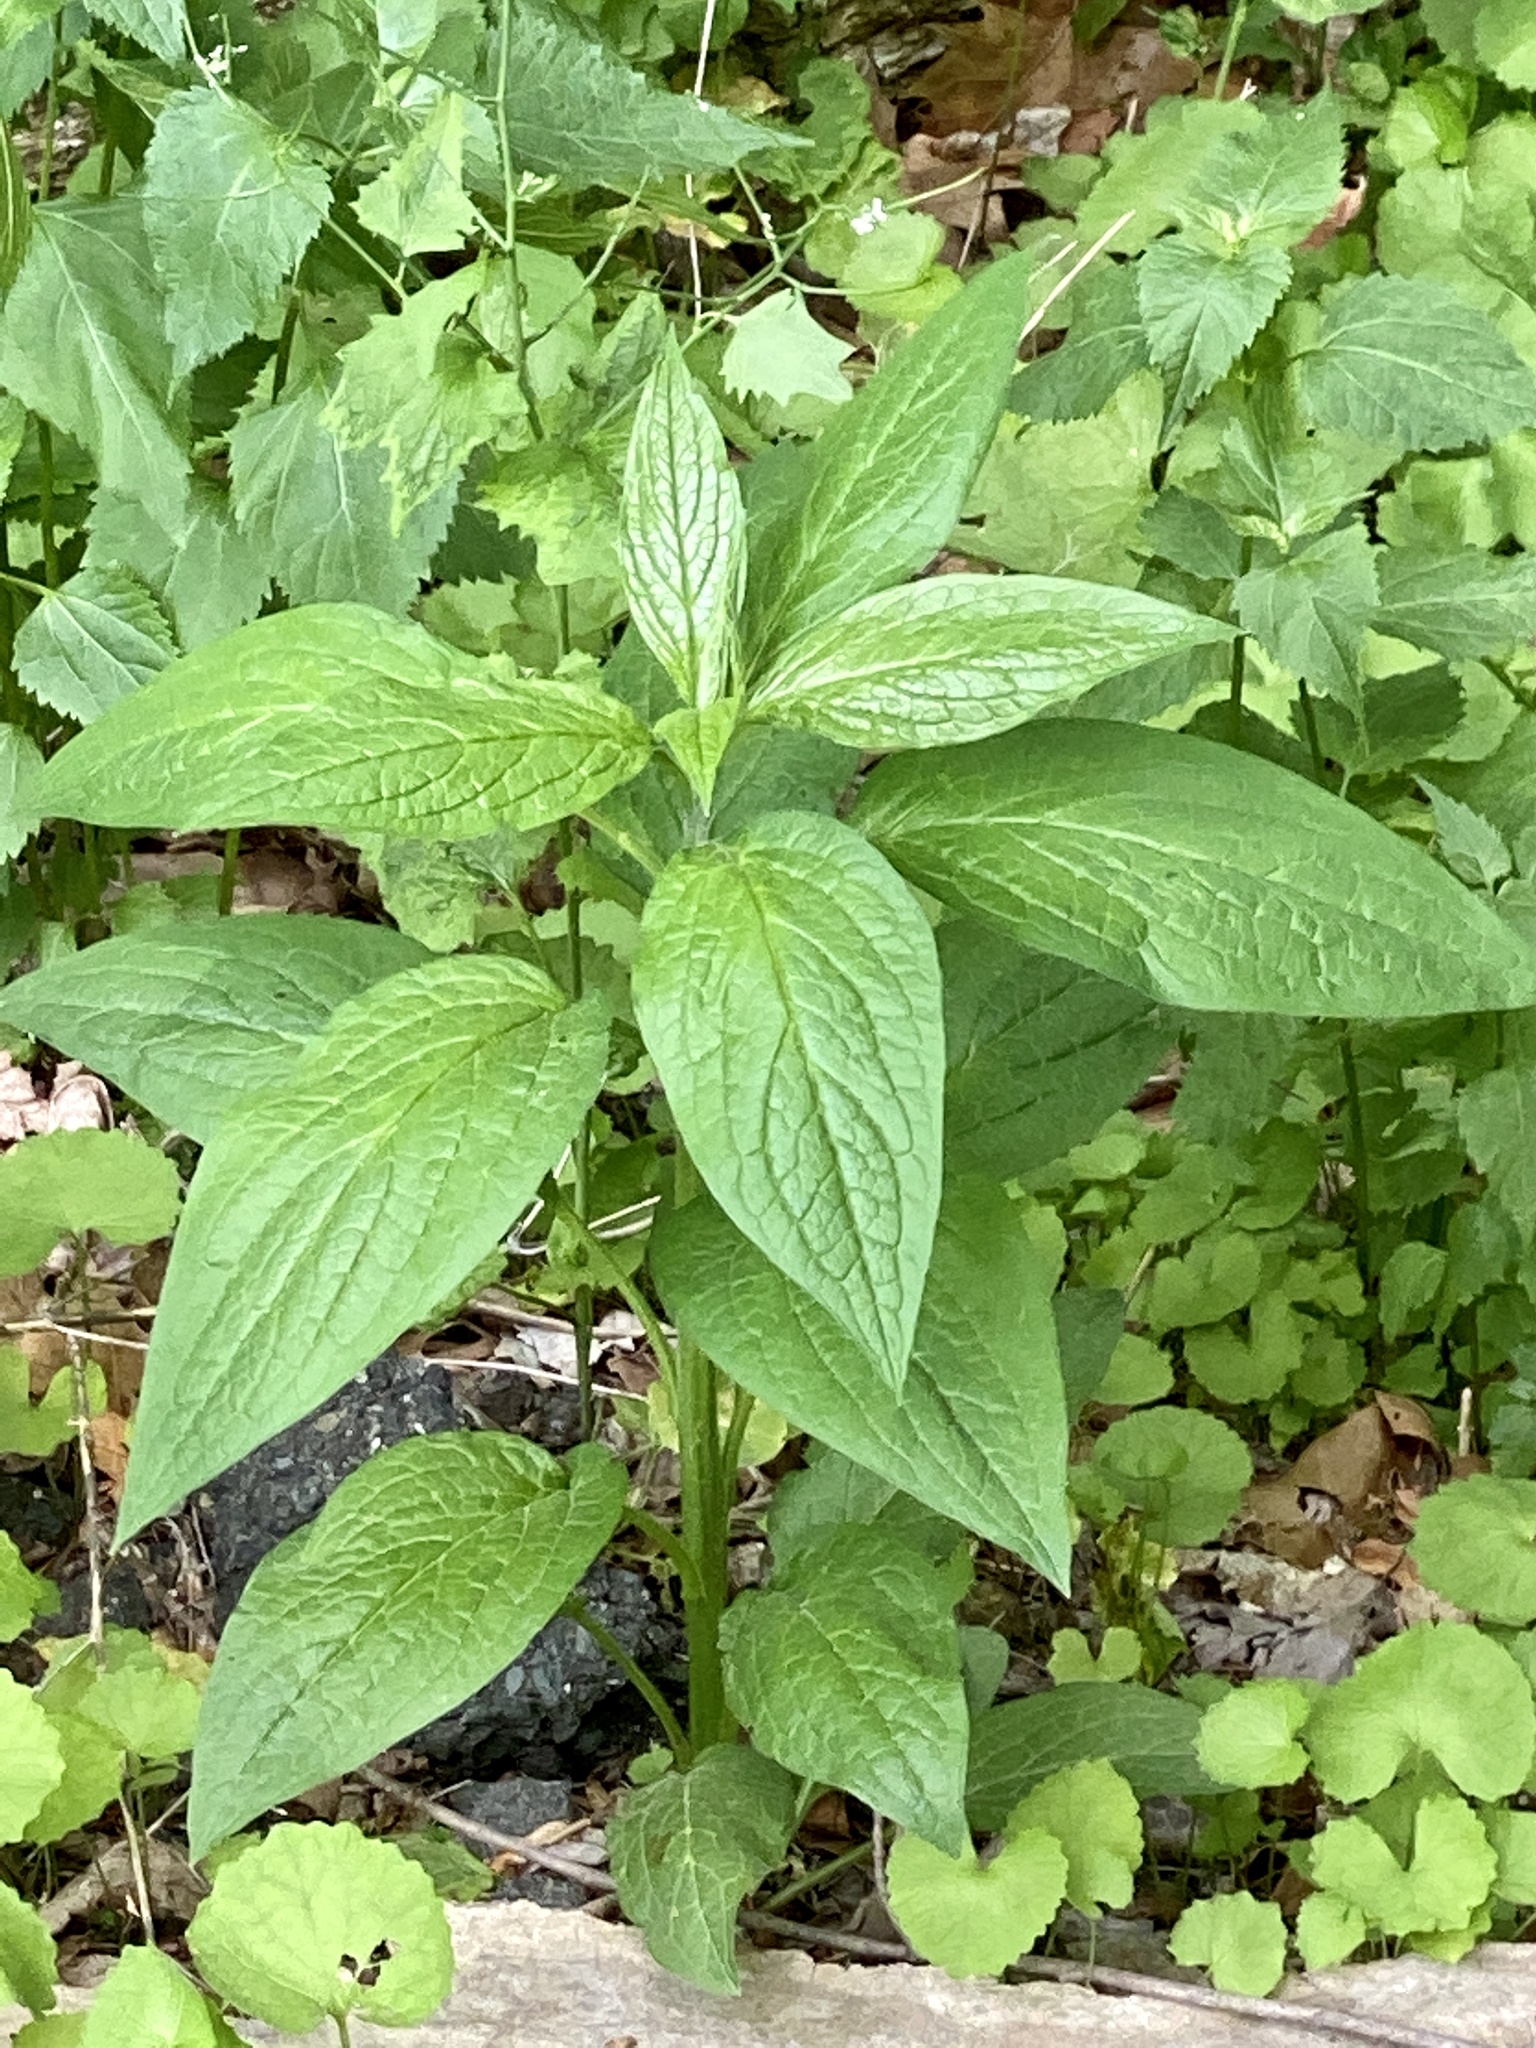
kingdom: Plantae
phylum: Tracheophyta
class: Magnoliopsida
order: Boraginales
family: Boraginaceae
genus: Hackelia
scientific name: Hackelia virginiana
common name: Beggar's-lice
